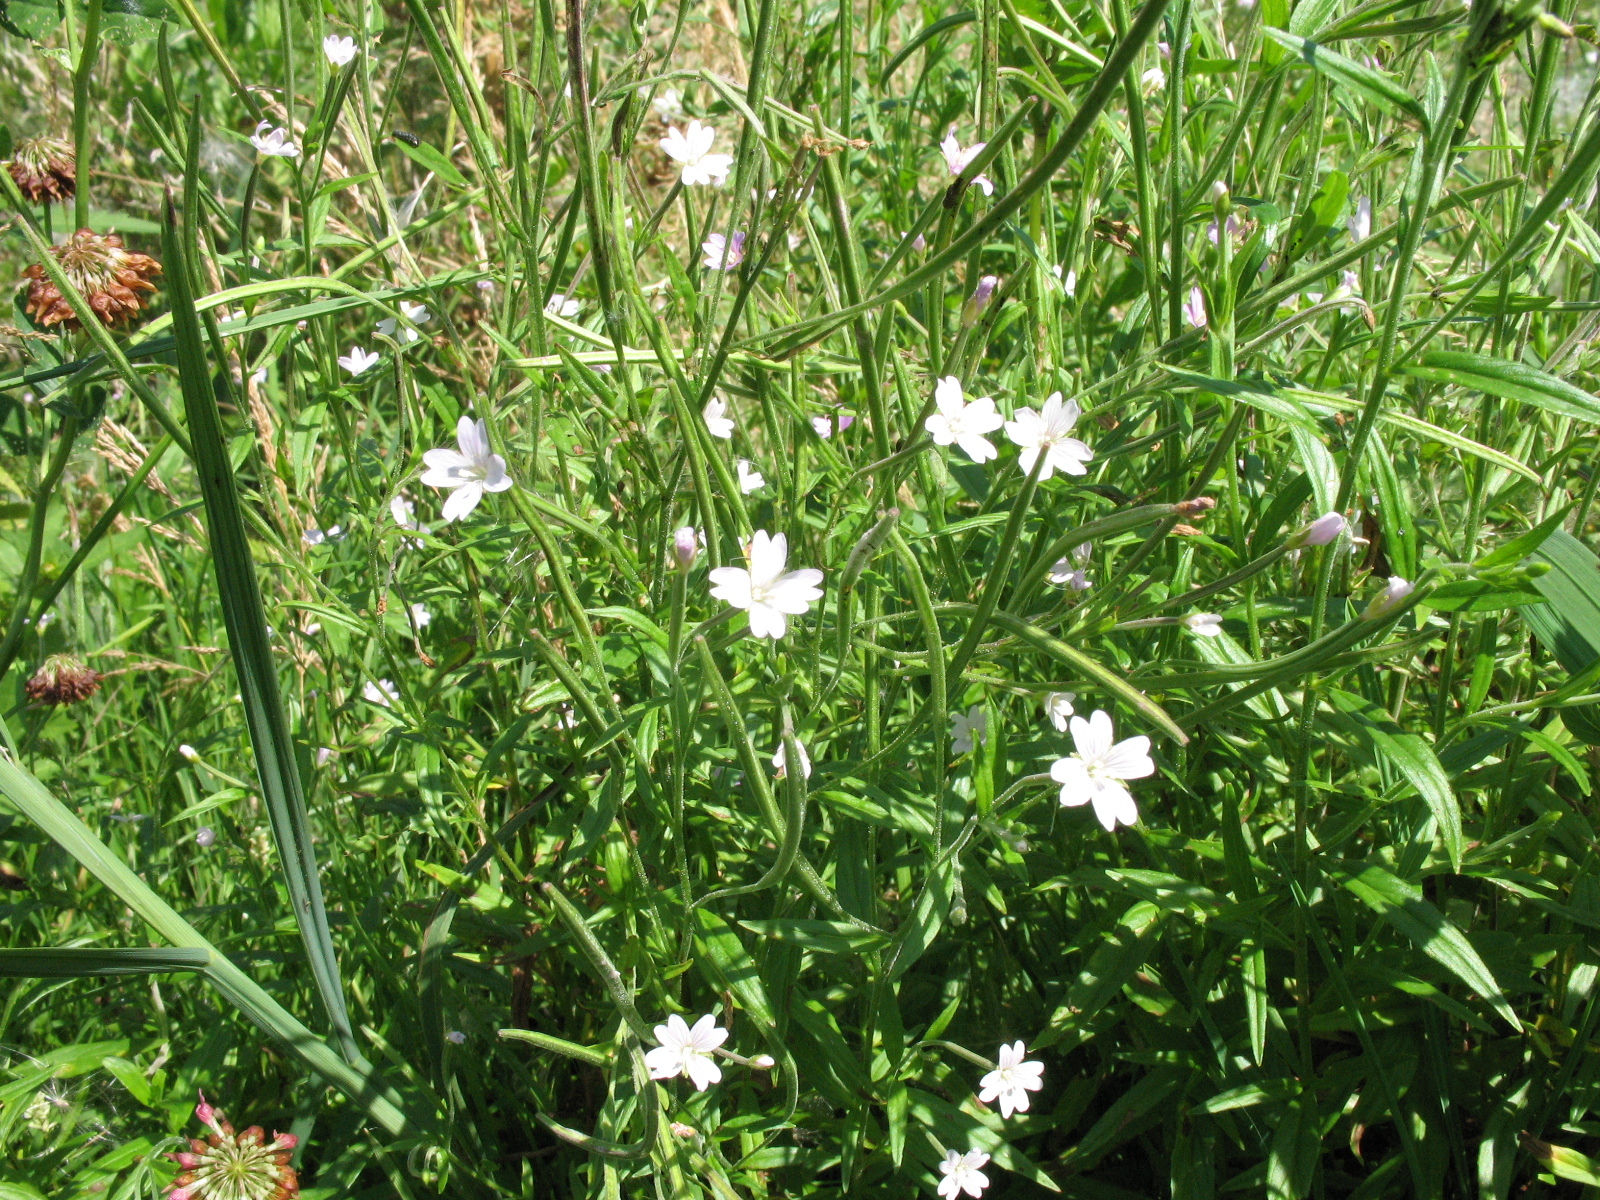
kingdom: Plantae
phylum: Tracheophyta
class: Magnoliopsida
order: Myrtales
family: Onagraceae
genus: Epilobium
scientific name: Epilobium palustre
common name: Marsh willowherb
